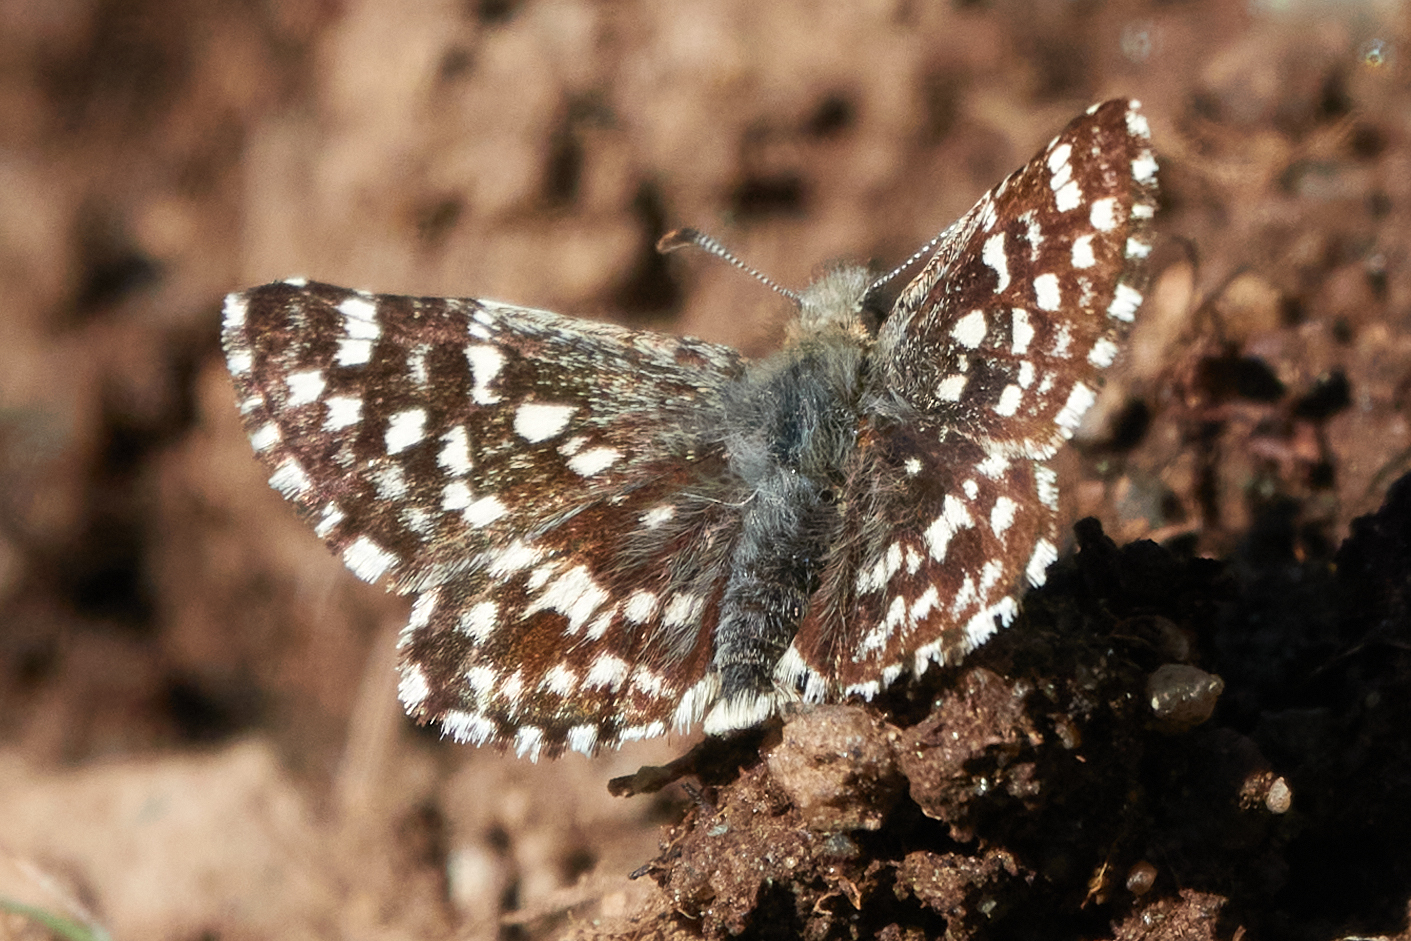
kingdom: Animalia
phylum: Arthropoda
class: Insecta
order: Lepidoptera
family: Hesperiidae
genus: Pyrgus
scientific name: Pyrgus ruralis
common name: Two-banded checkered-skipper
